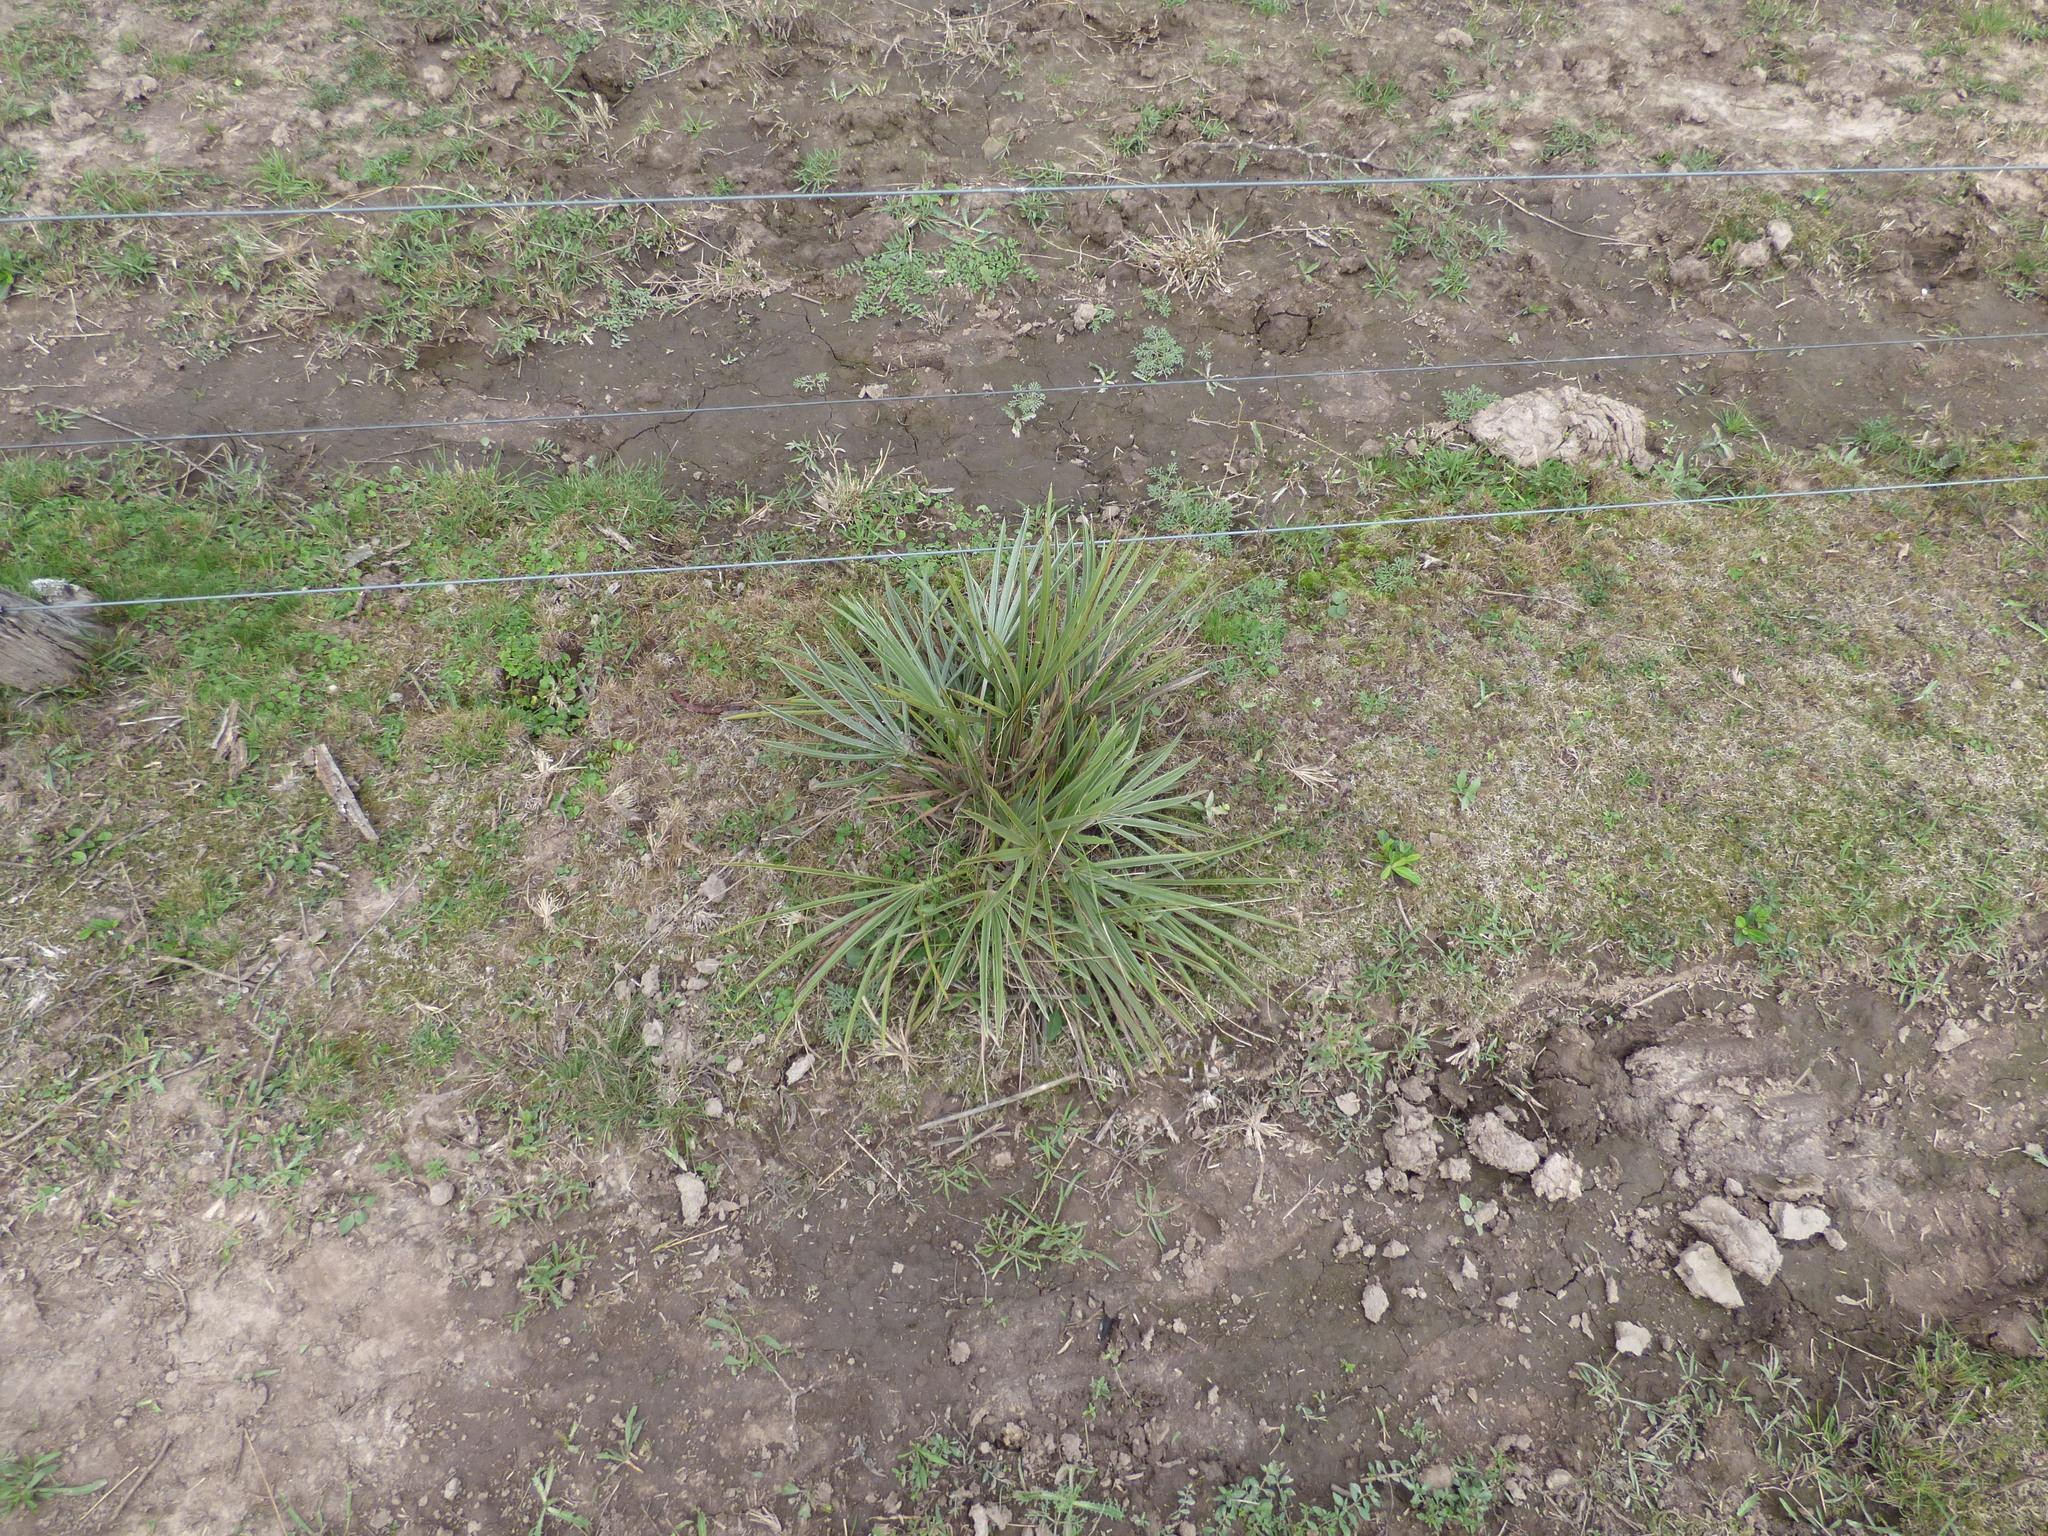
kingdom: Plantae
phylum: Tracheophyta
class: Liliopsida
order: Arecales
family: Arecaceae
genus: Copernicia
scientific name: Copernicia alba
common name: Caranday palm
